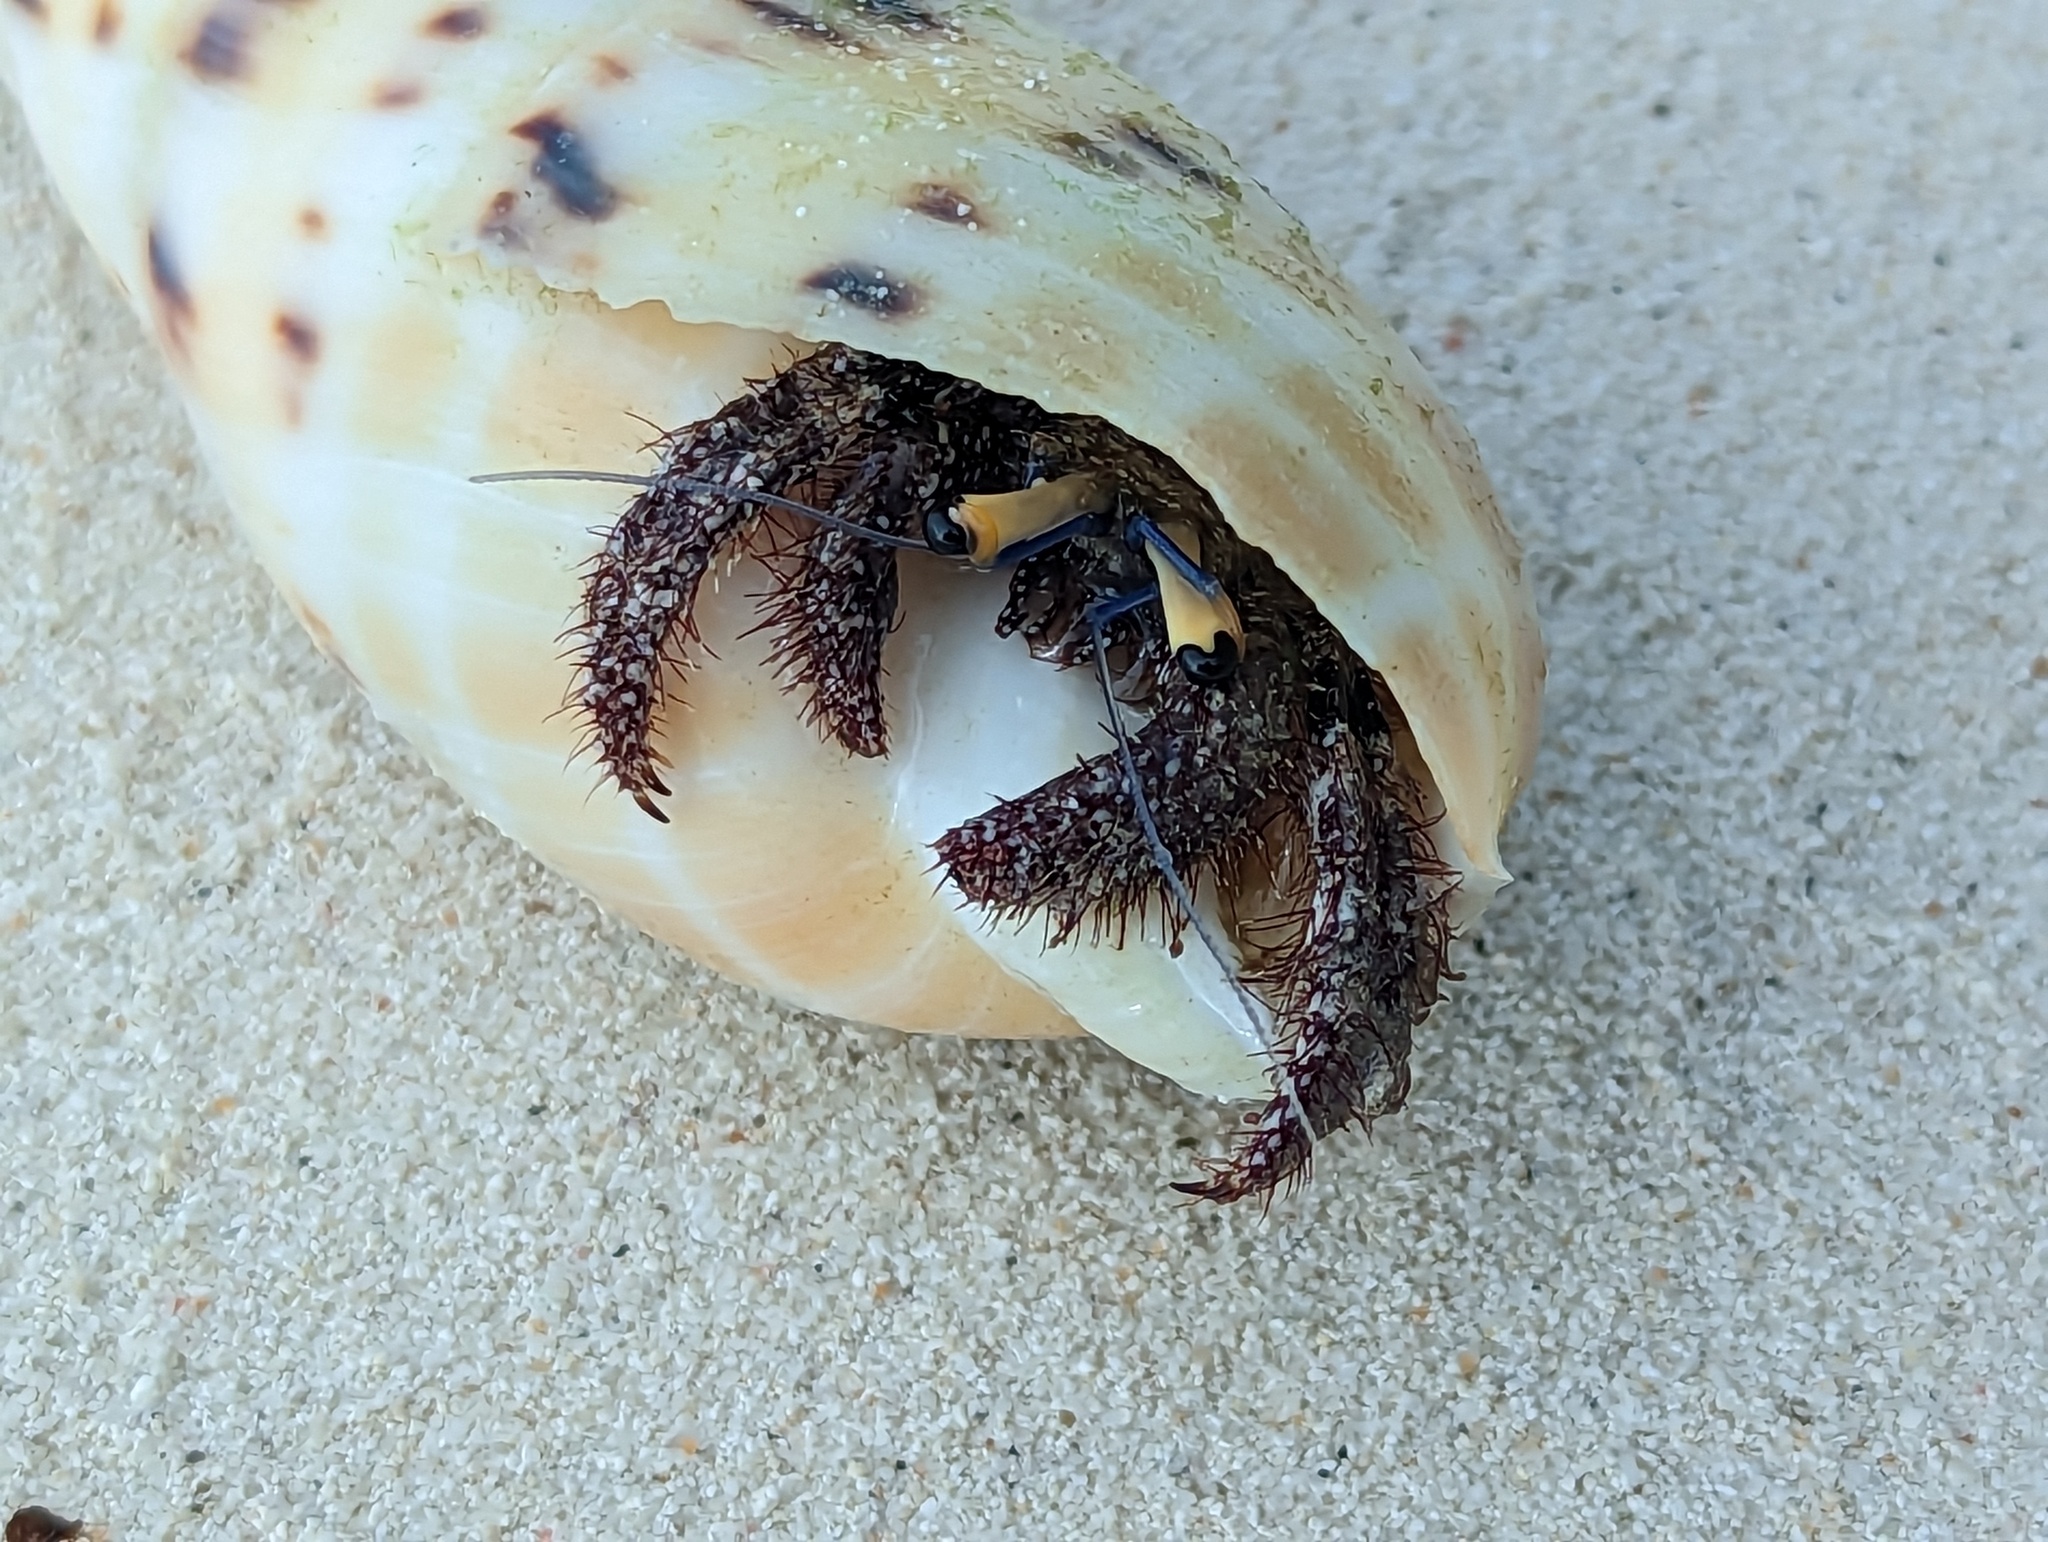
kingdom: Animalia
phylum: Arthropoda
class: Malacostraca
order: Decapoda
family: Diogenidae
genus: Dardanus
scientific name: Dardanus lagopodes
